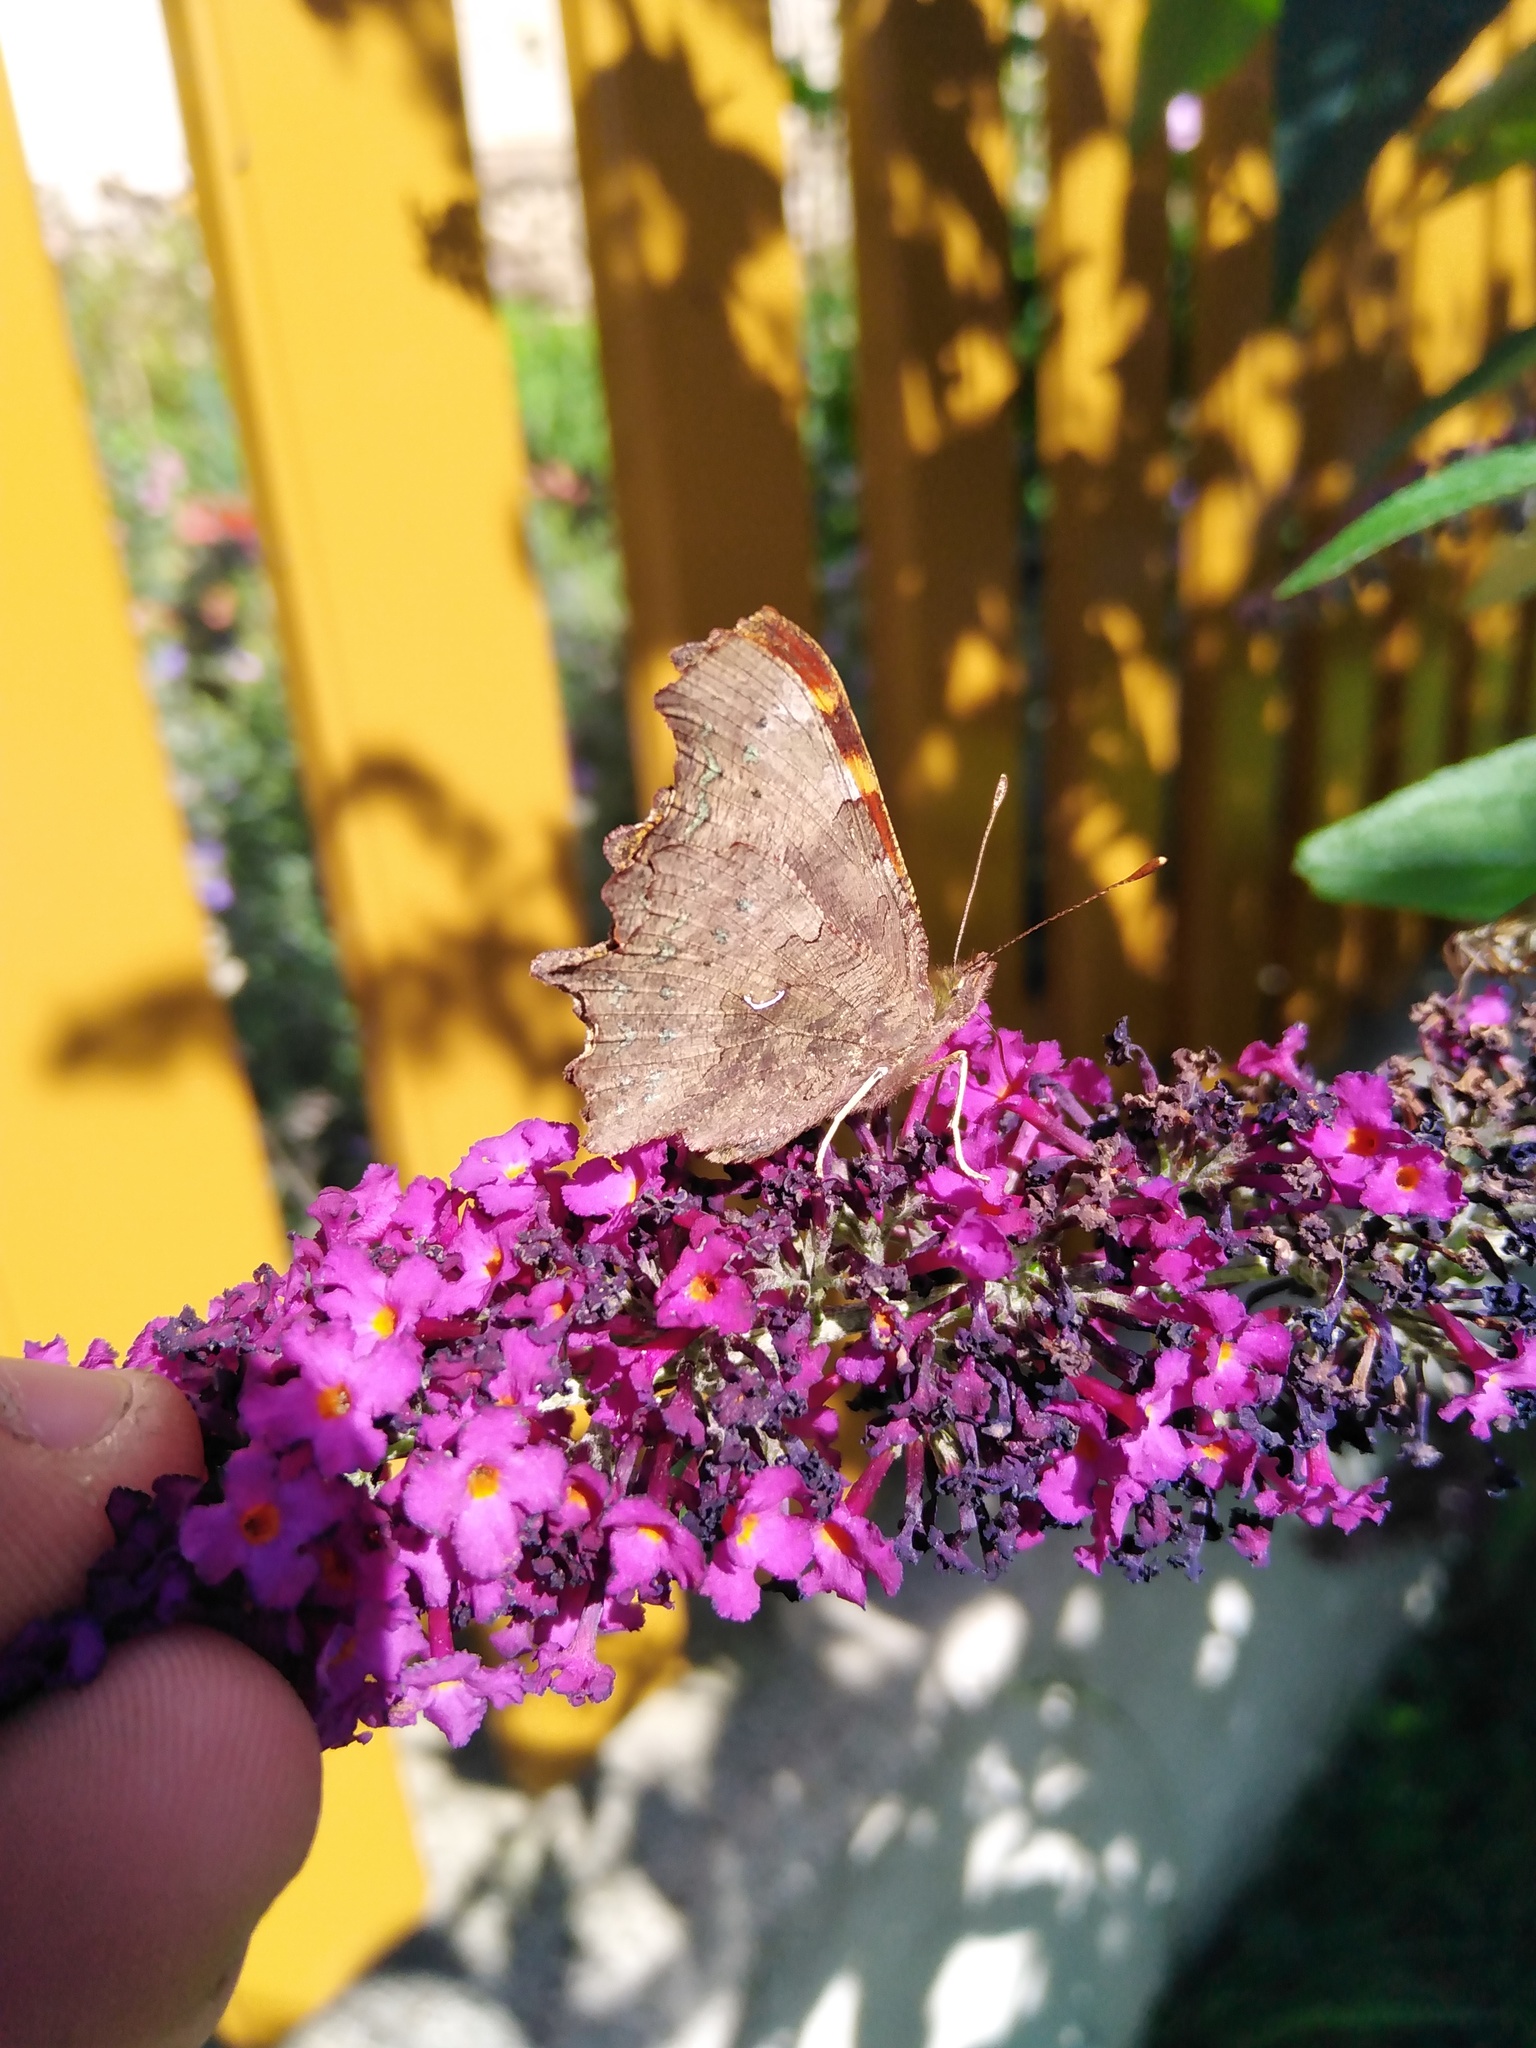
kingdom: Animalia
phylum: Arthropoda
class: Insecta
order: Lepidoptera
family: Nymphalidae
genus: Polygonia
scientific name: Polygonia c-album
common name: Comma
